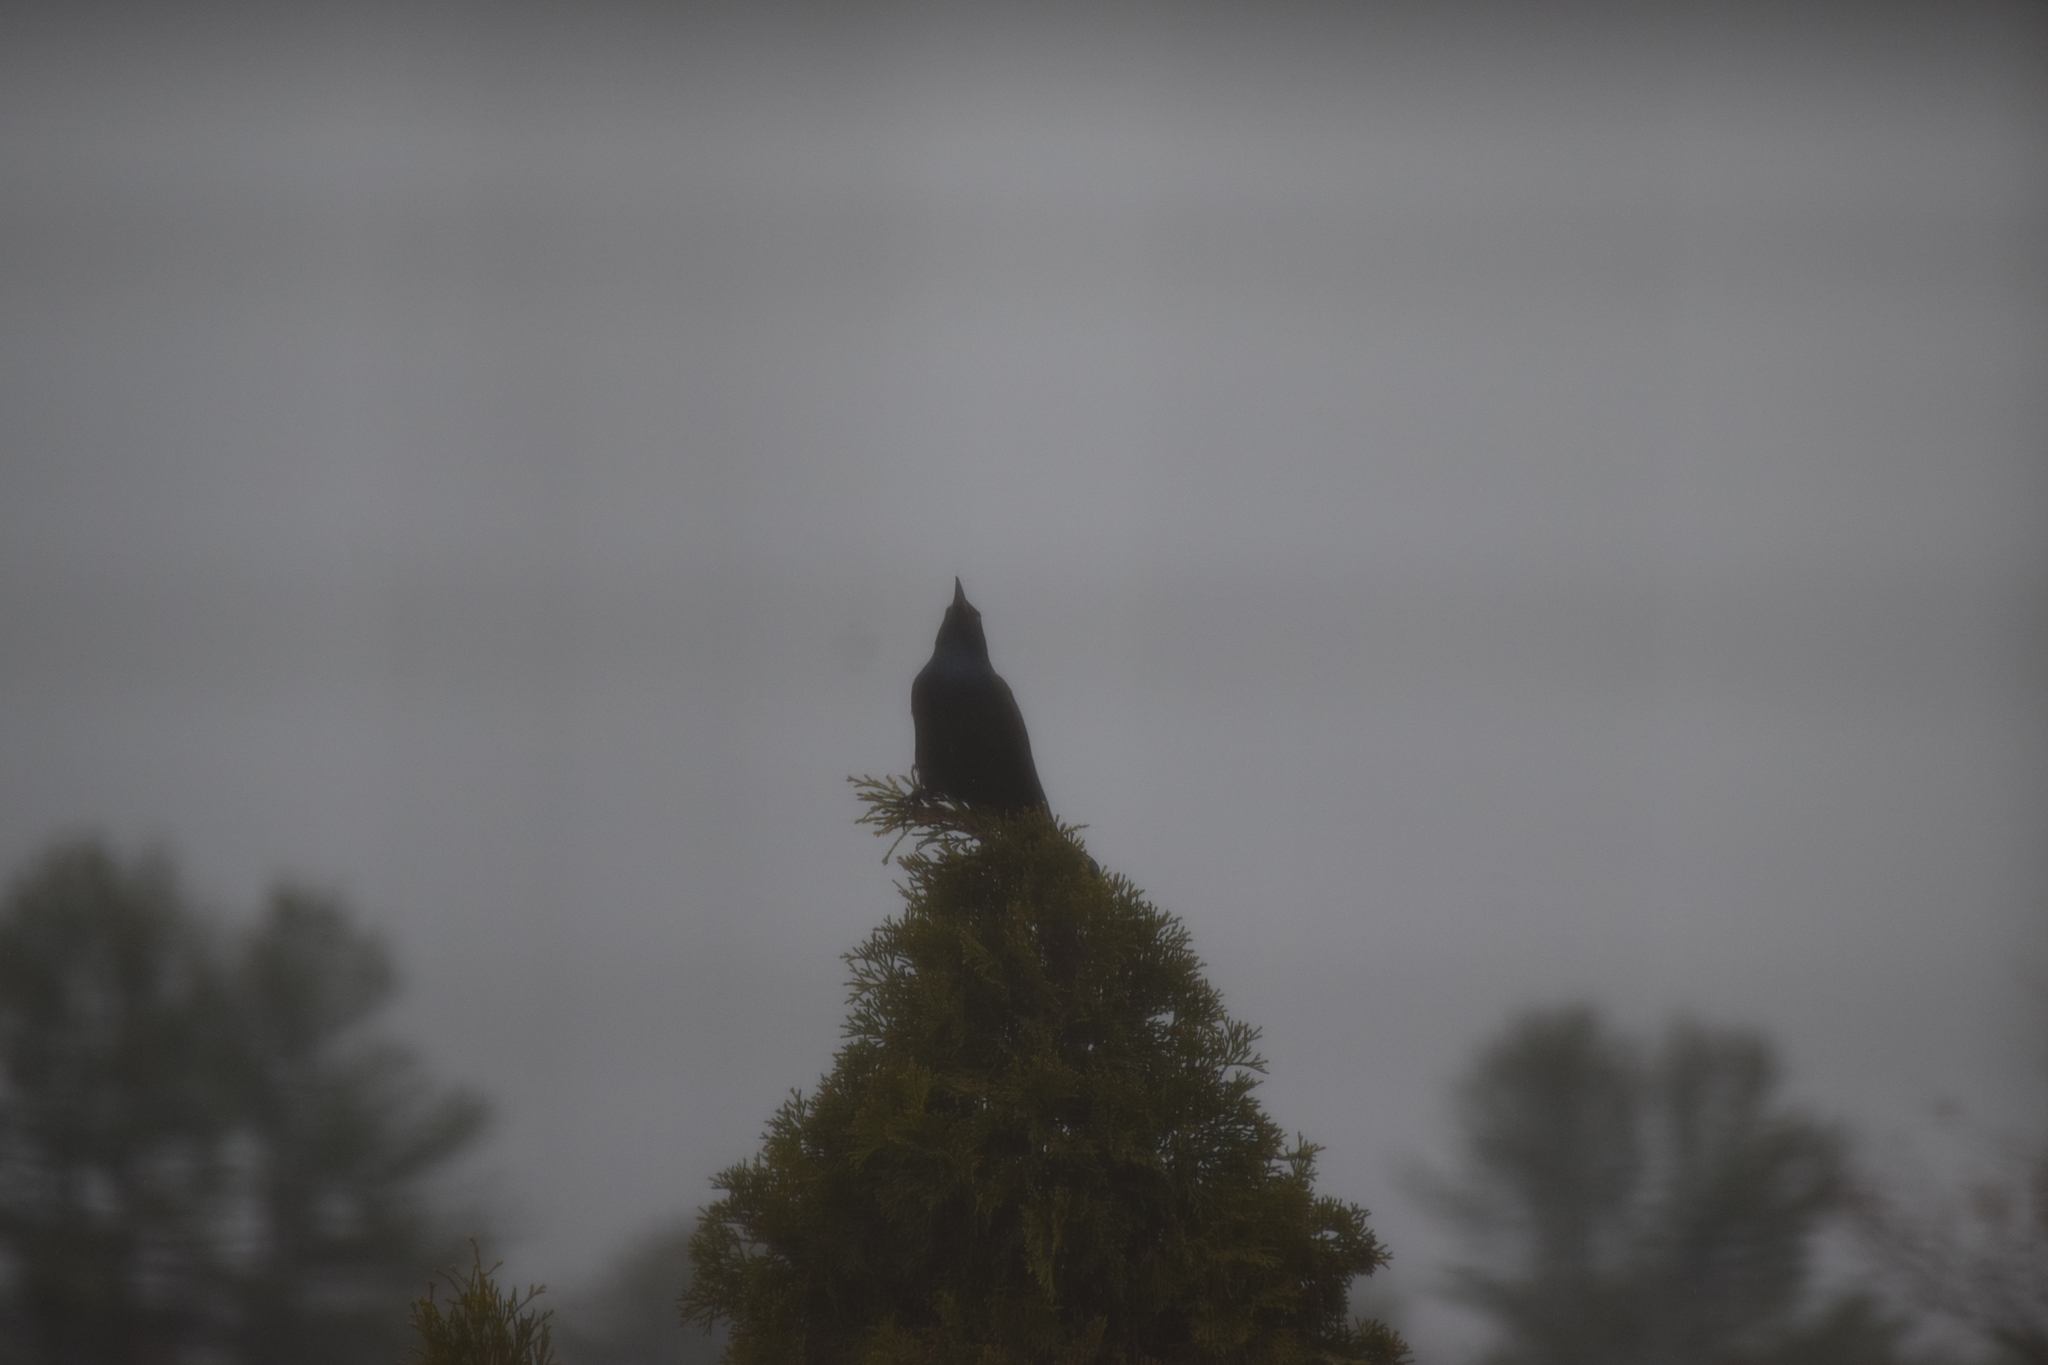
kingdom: Animalia
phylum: Chordata
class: Aves
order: Passeriformes
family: Icteridae
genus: Quiscalus
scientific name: Quiscalus quiscula
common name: Common grackle
